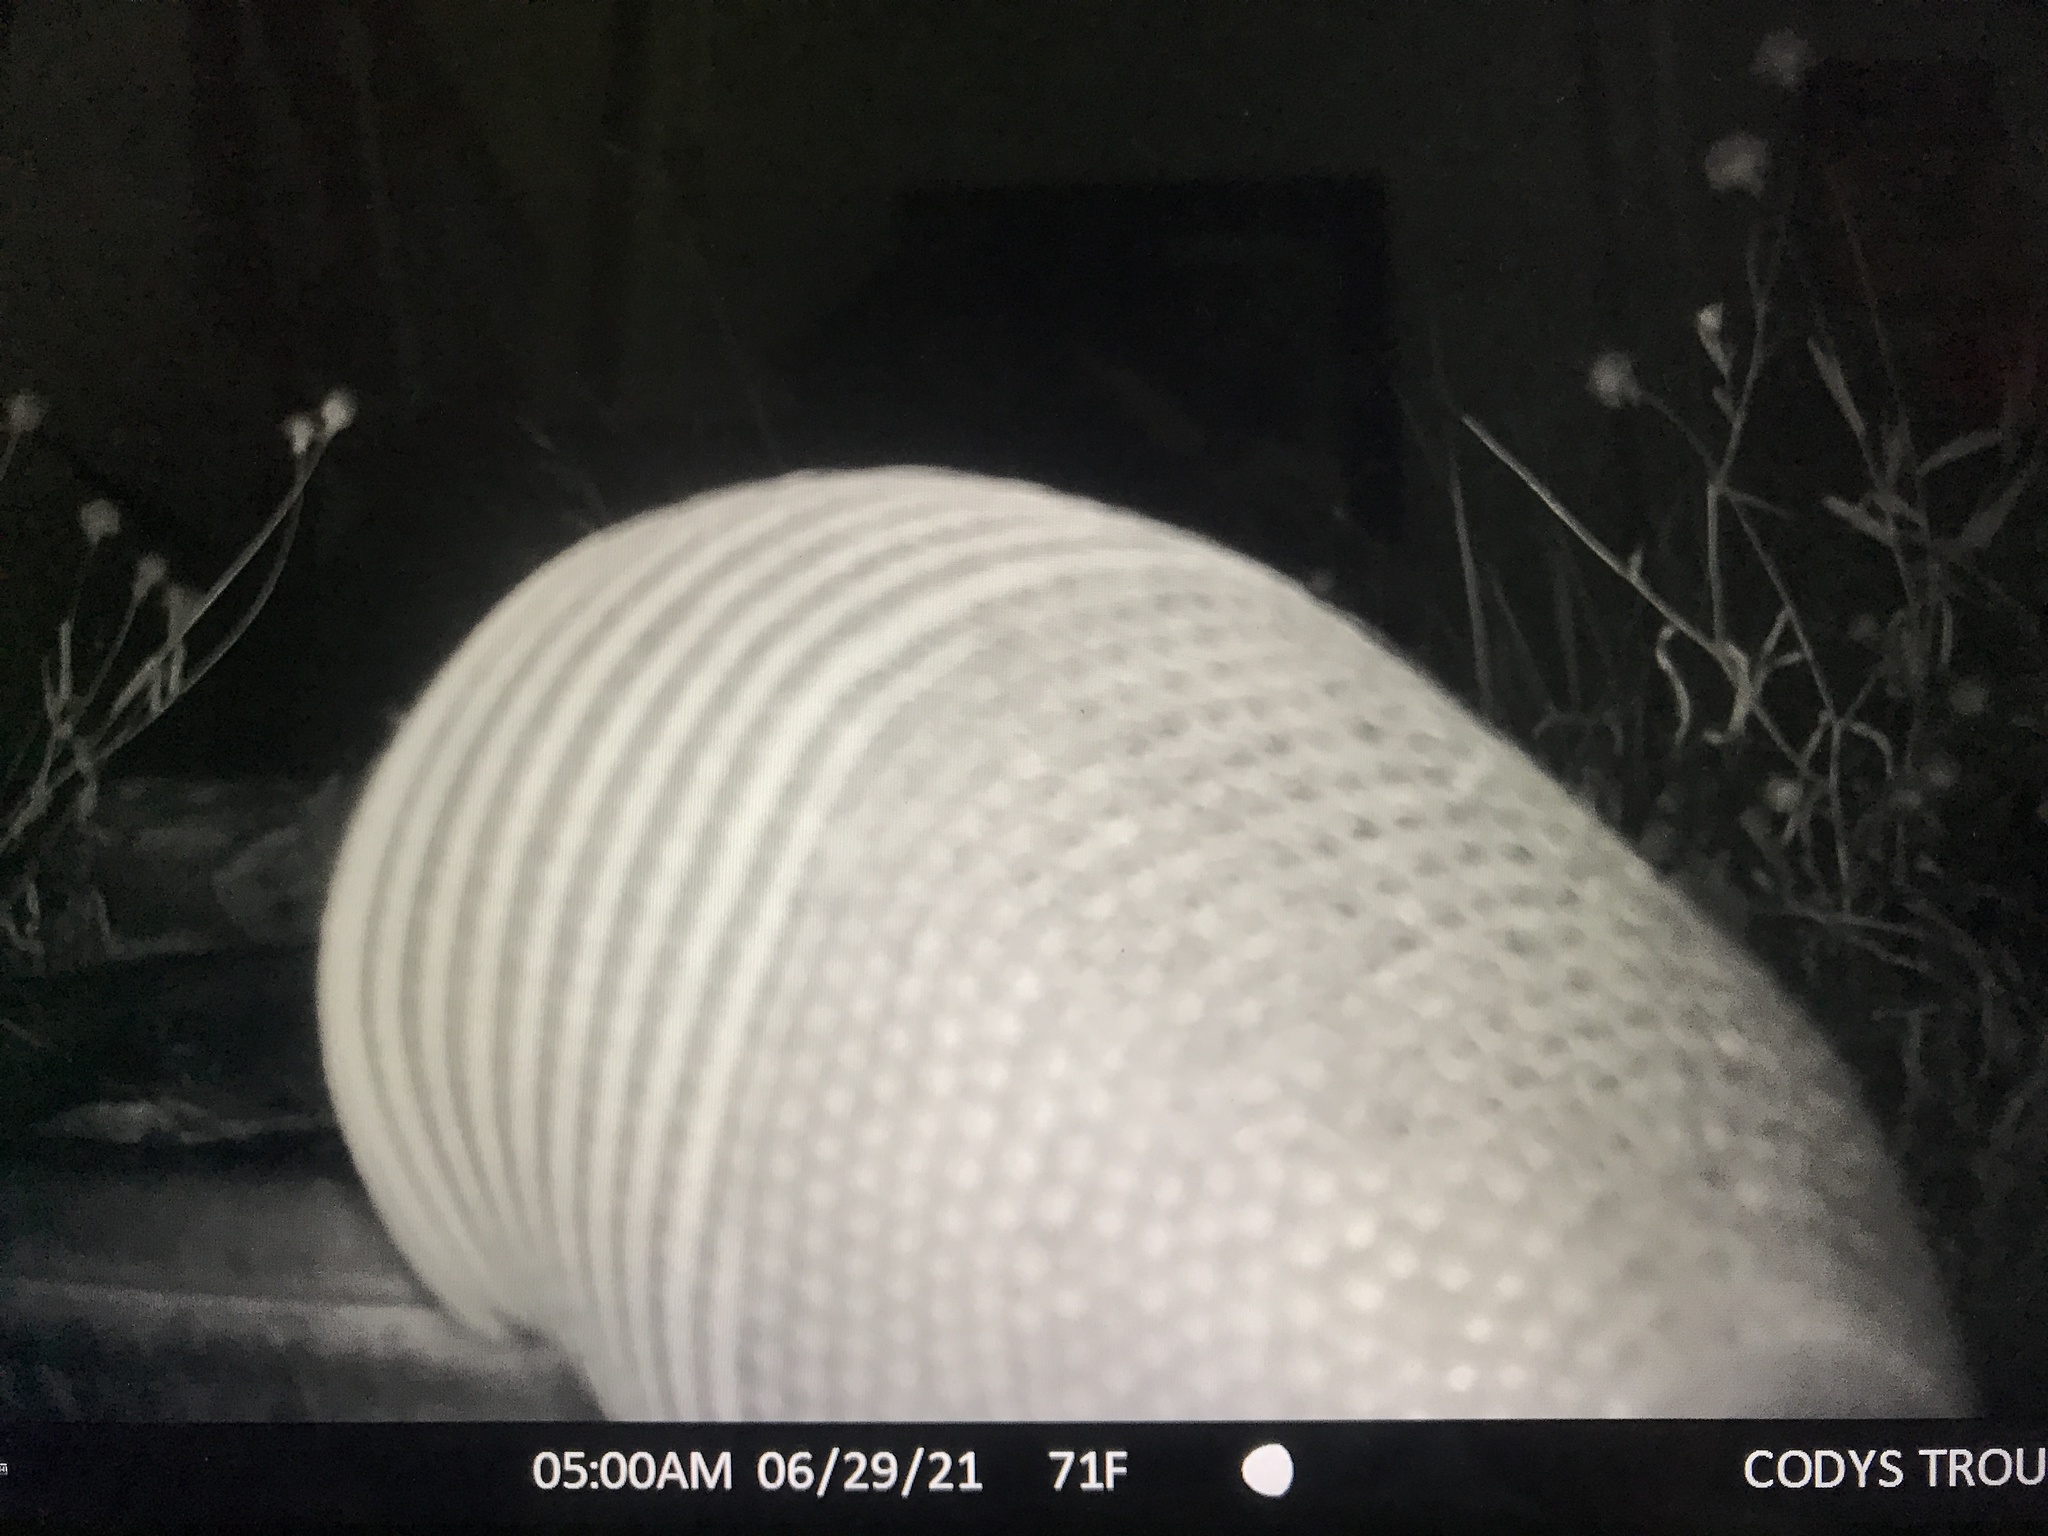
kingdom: Animalia
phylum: Chordata
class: Mammalia
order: Cingulata
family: Dasypodidae
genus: Dasypus
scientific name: Dasypus novemcinctus
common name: Nine-banded armadillo
